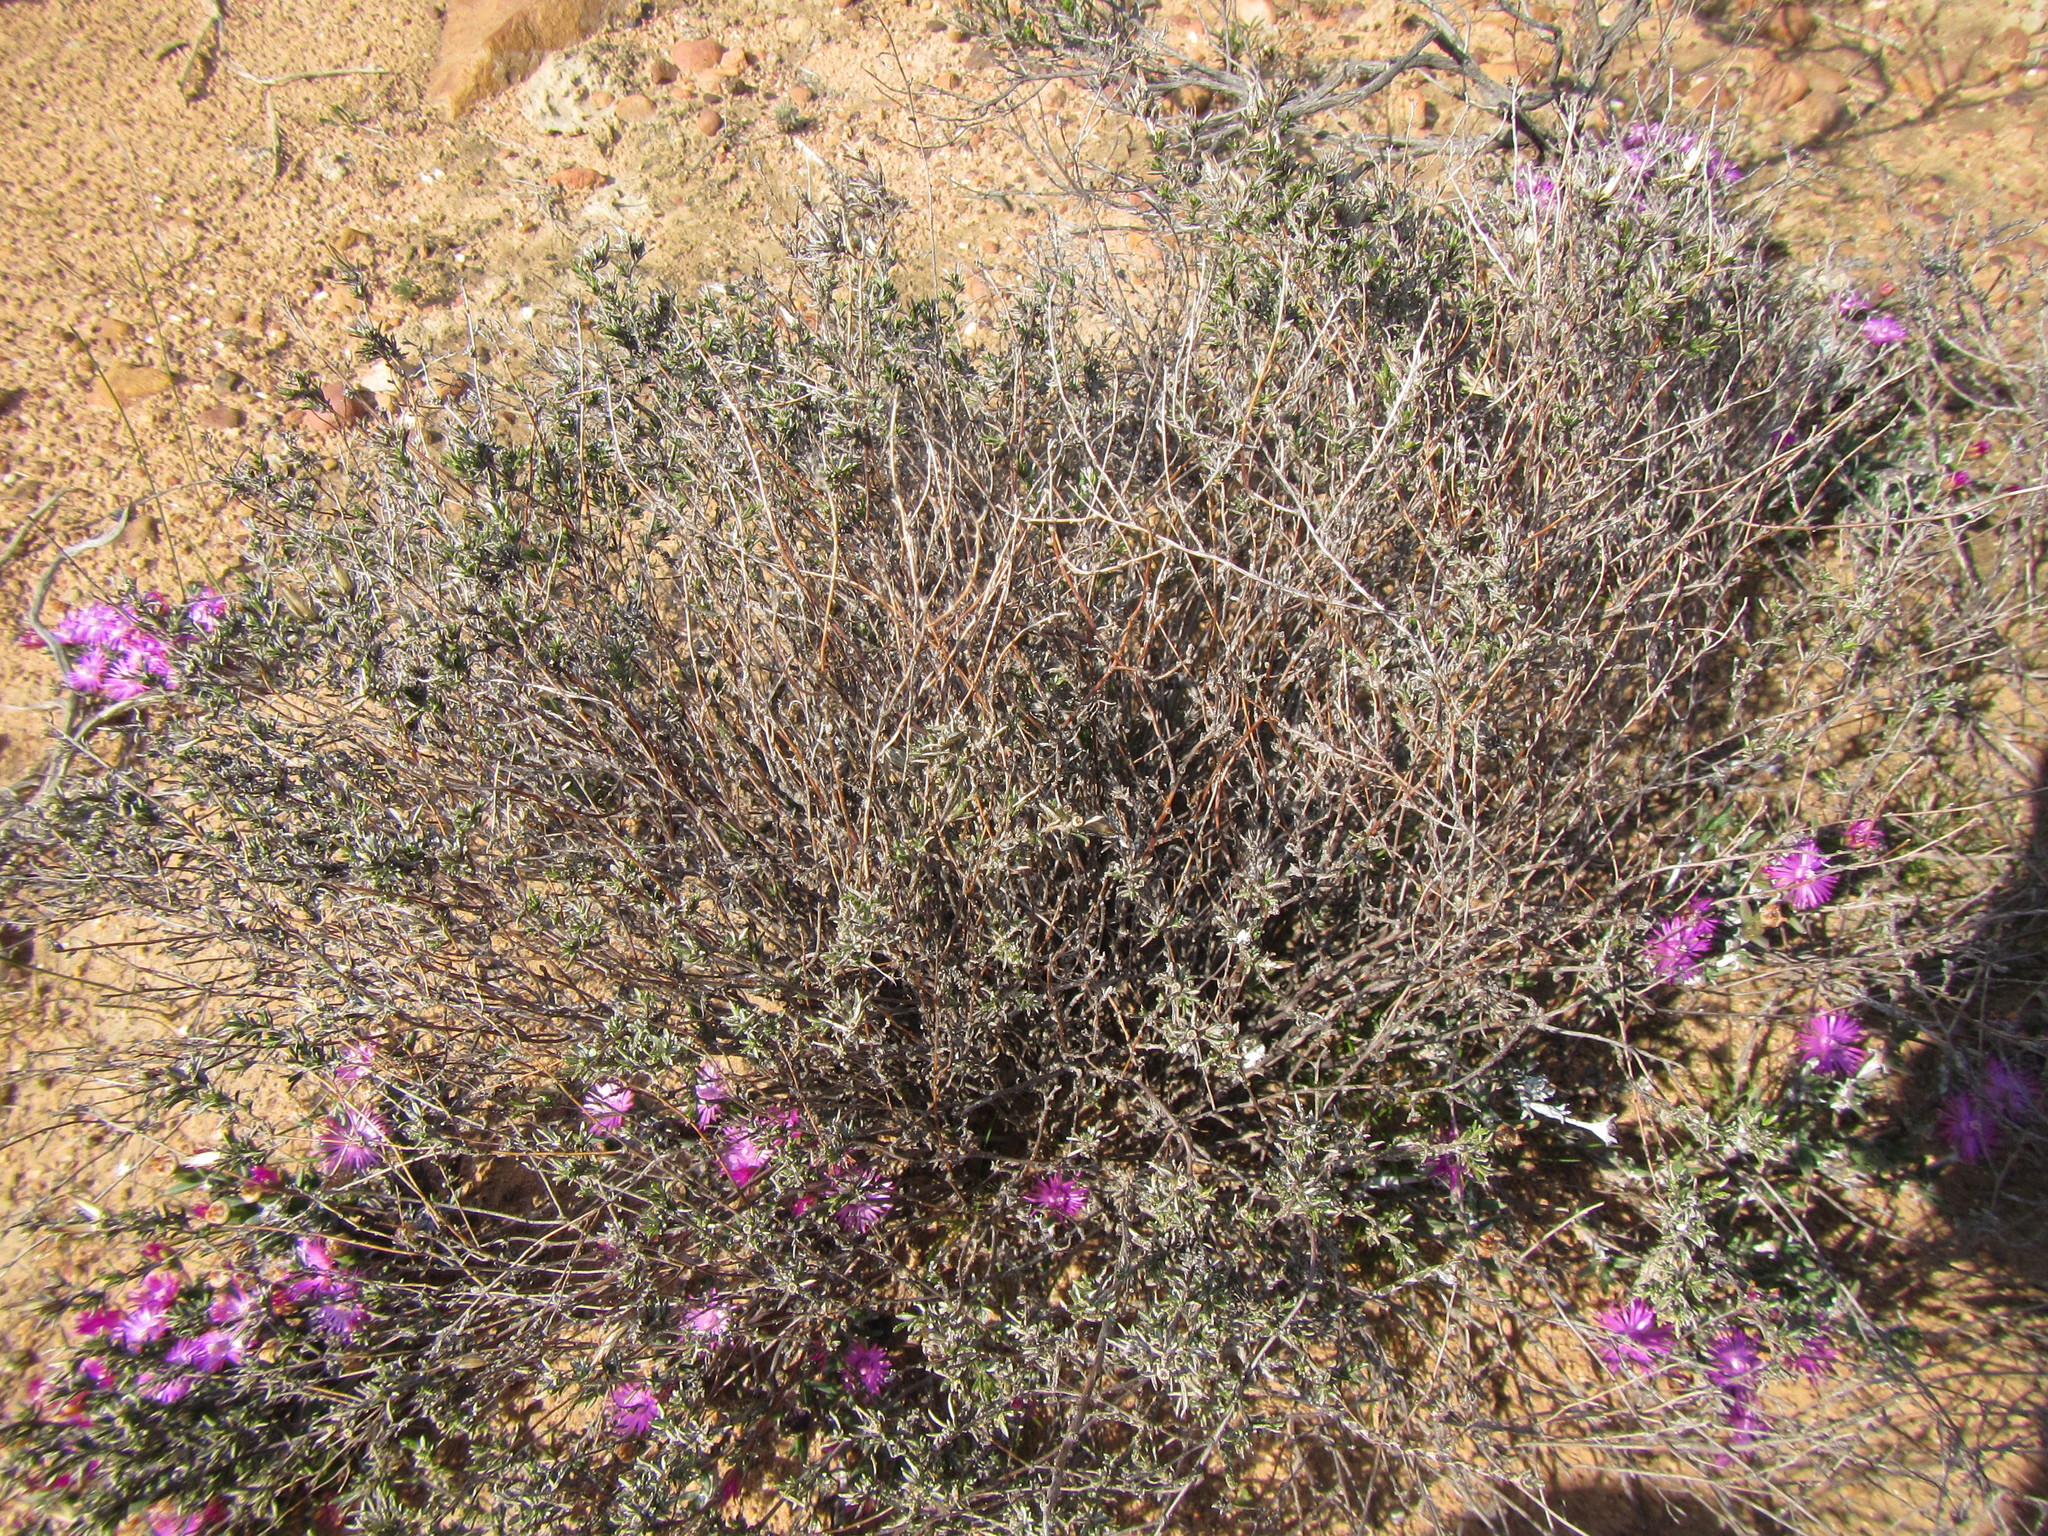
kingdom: Plantae
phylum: Tracheophyta
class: Magnoliopsida
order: Asterales
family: Asteraceae
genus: Amphiglossa
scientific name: Amphiglossa tomentosa
